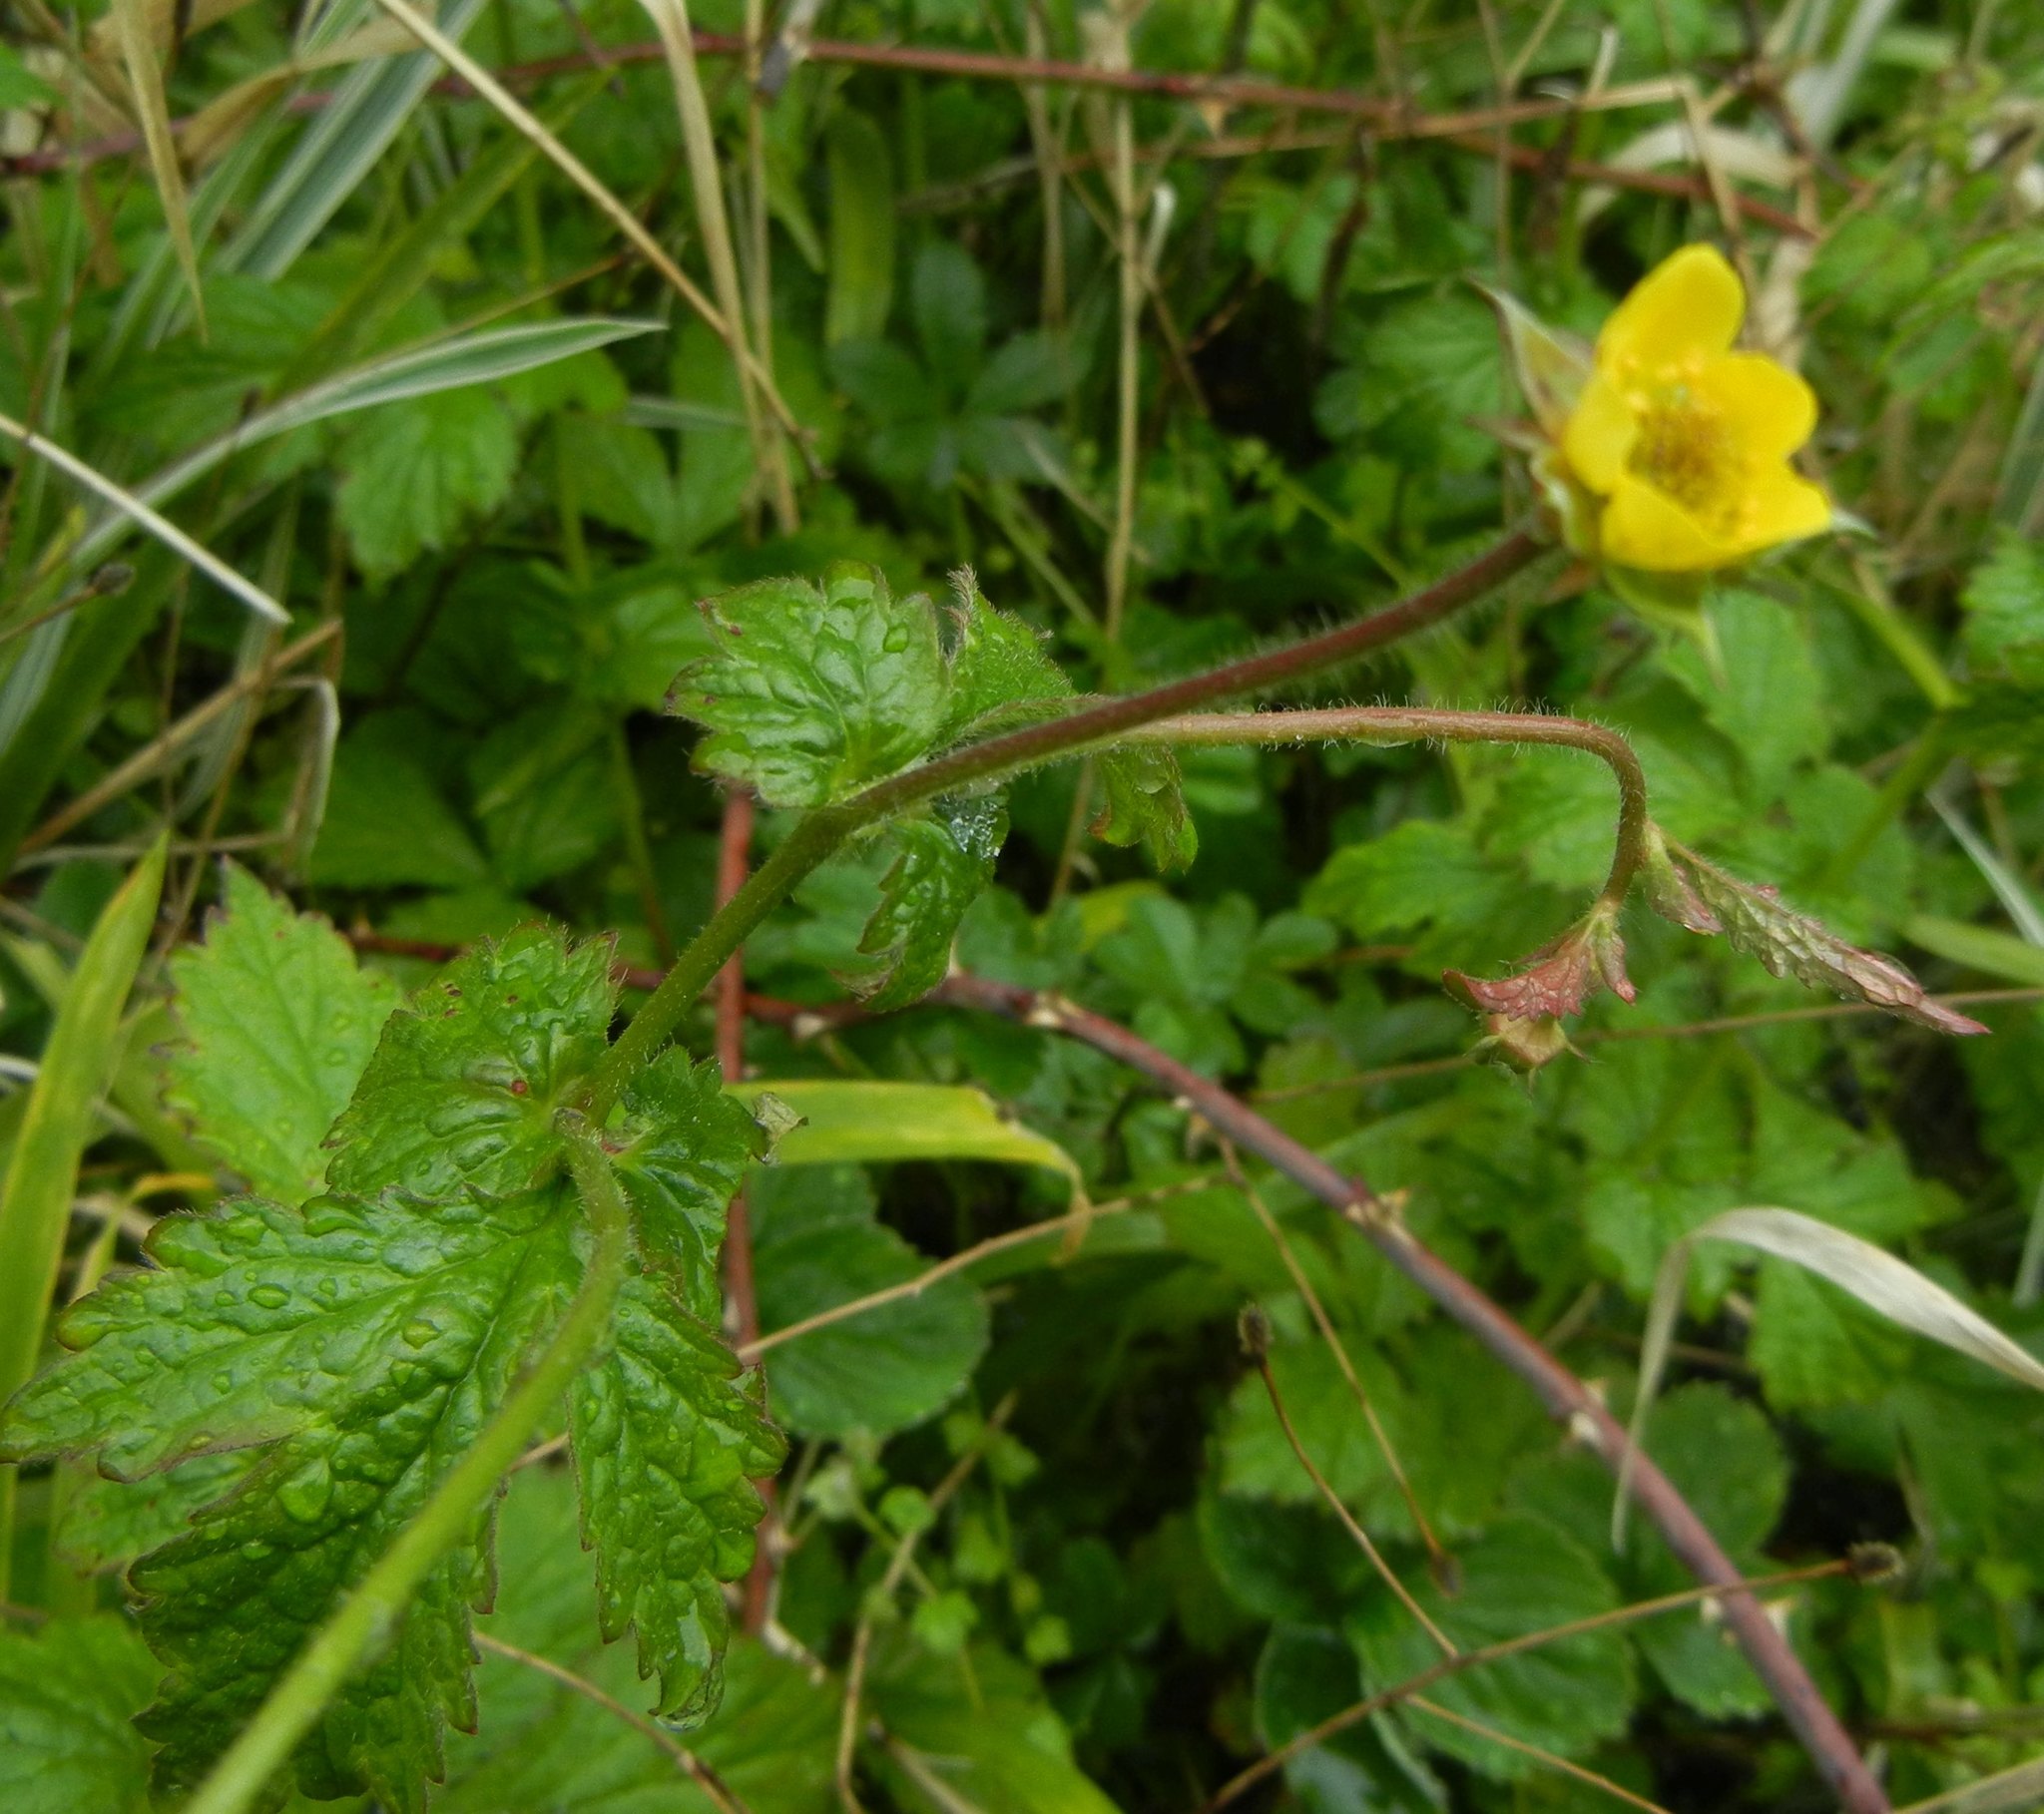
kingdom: Plantae
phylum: Tracheophyta
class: Magnoliopsida
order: Rosales
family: Rosaceae
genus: Geum
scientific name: Geum urbanum
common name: Wood avens
